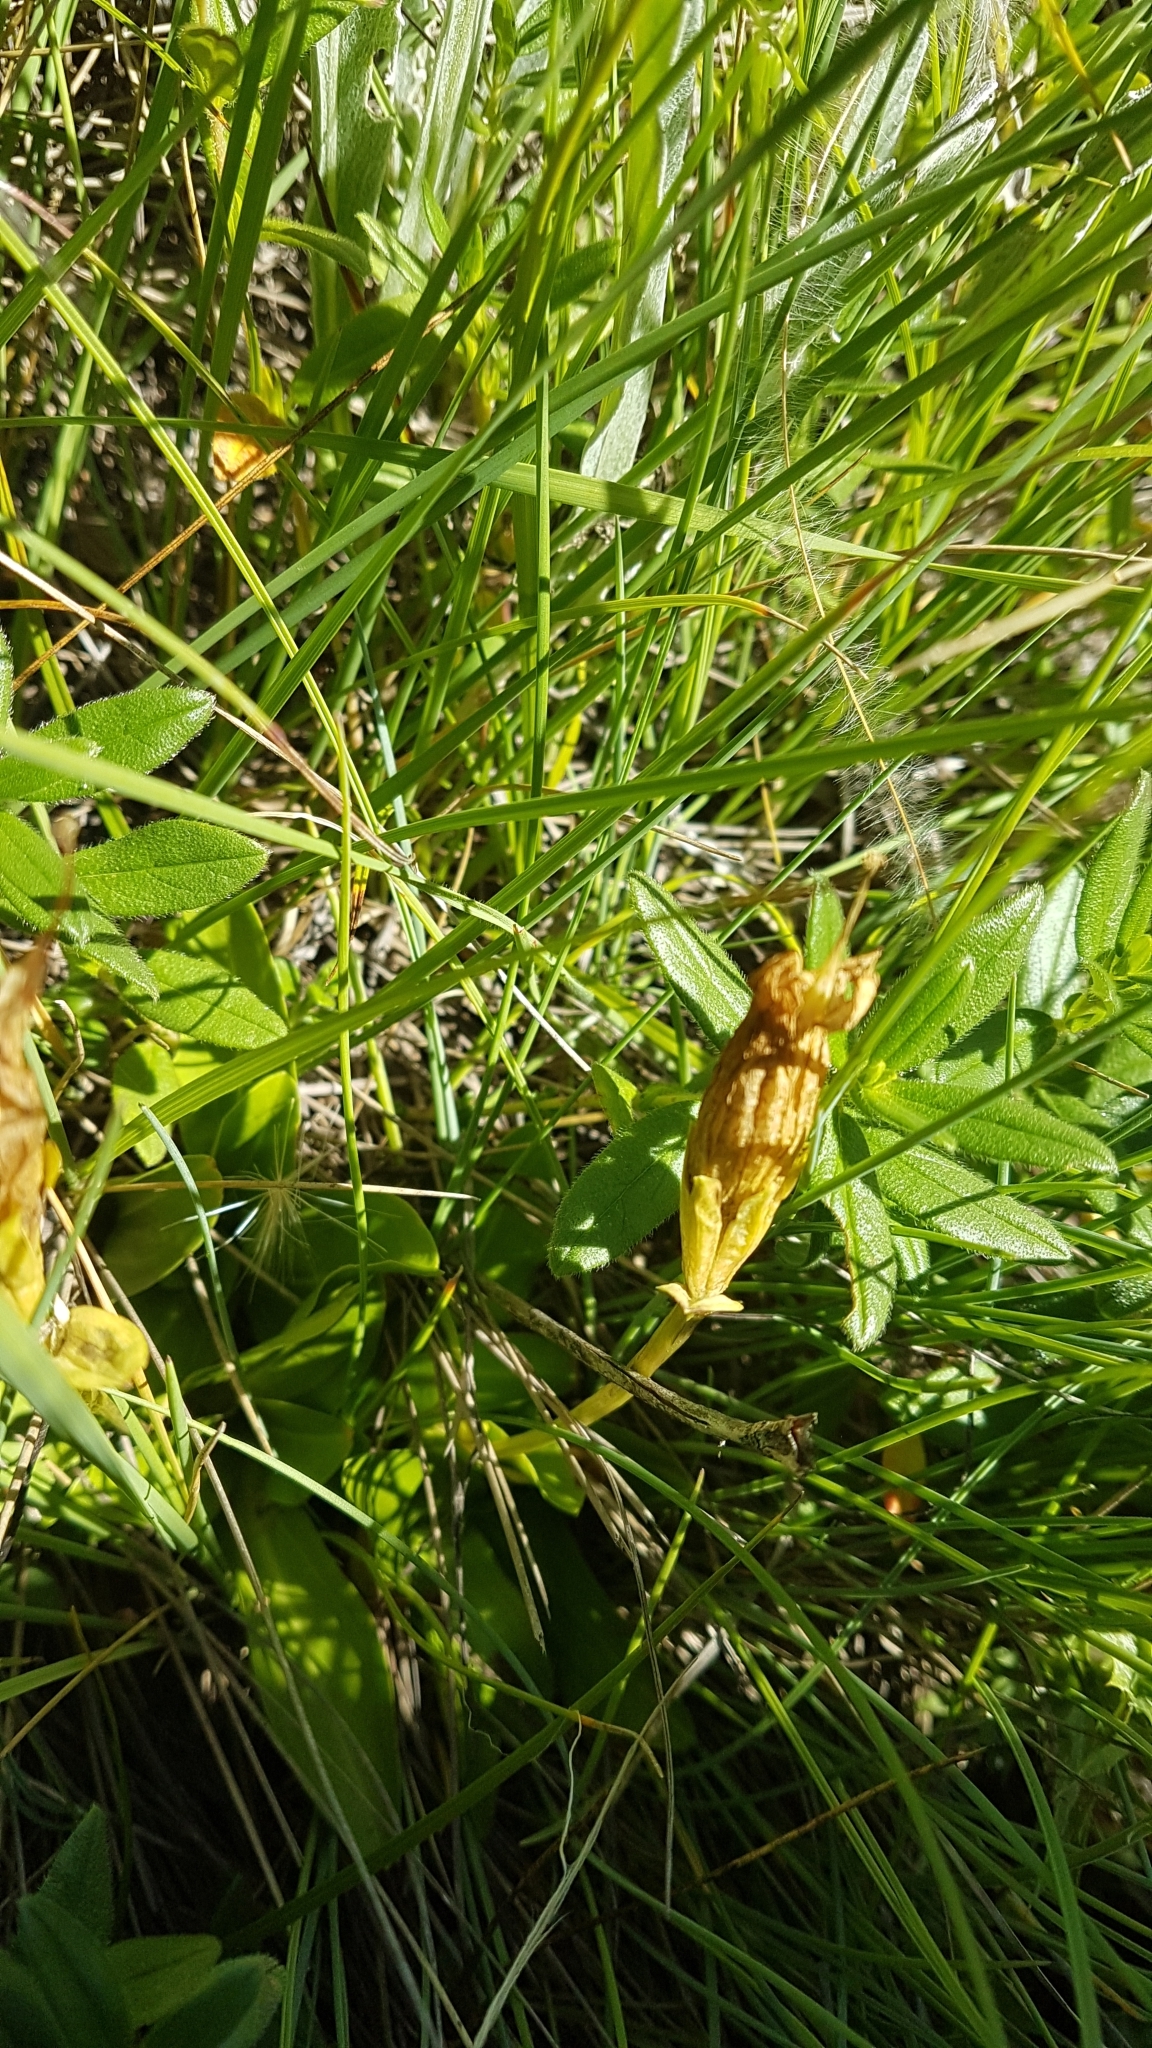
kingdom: Plantae
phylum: Tracheophyta
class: Magnoliopsida
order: Gentianales
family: Gentianaceae
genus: Gentiana
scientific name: Gentiana acaulis
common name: Trumpet gentian
